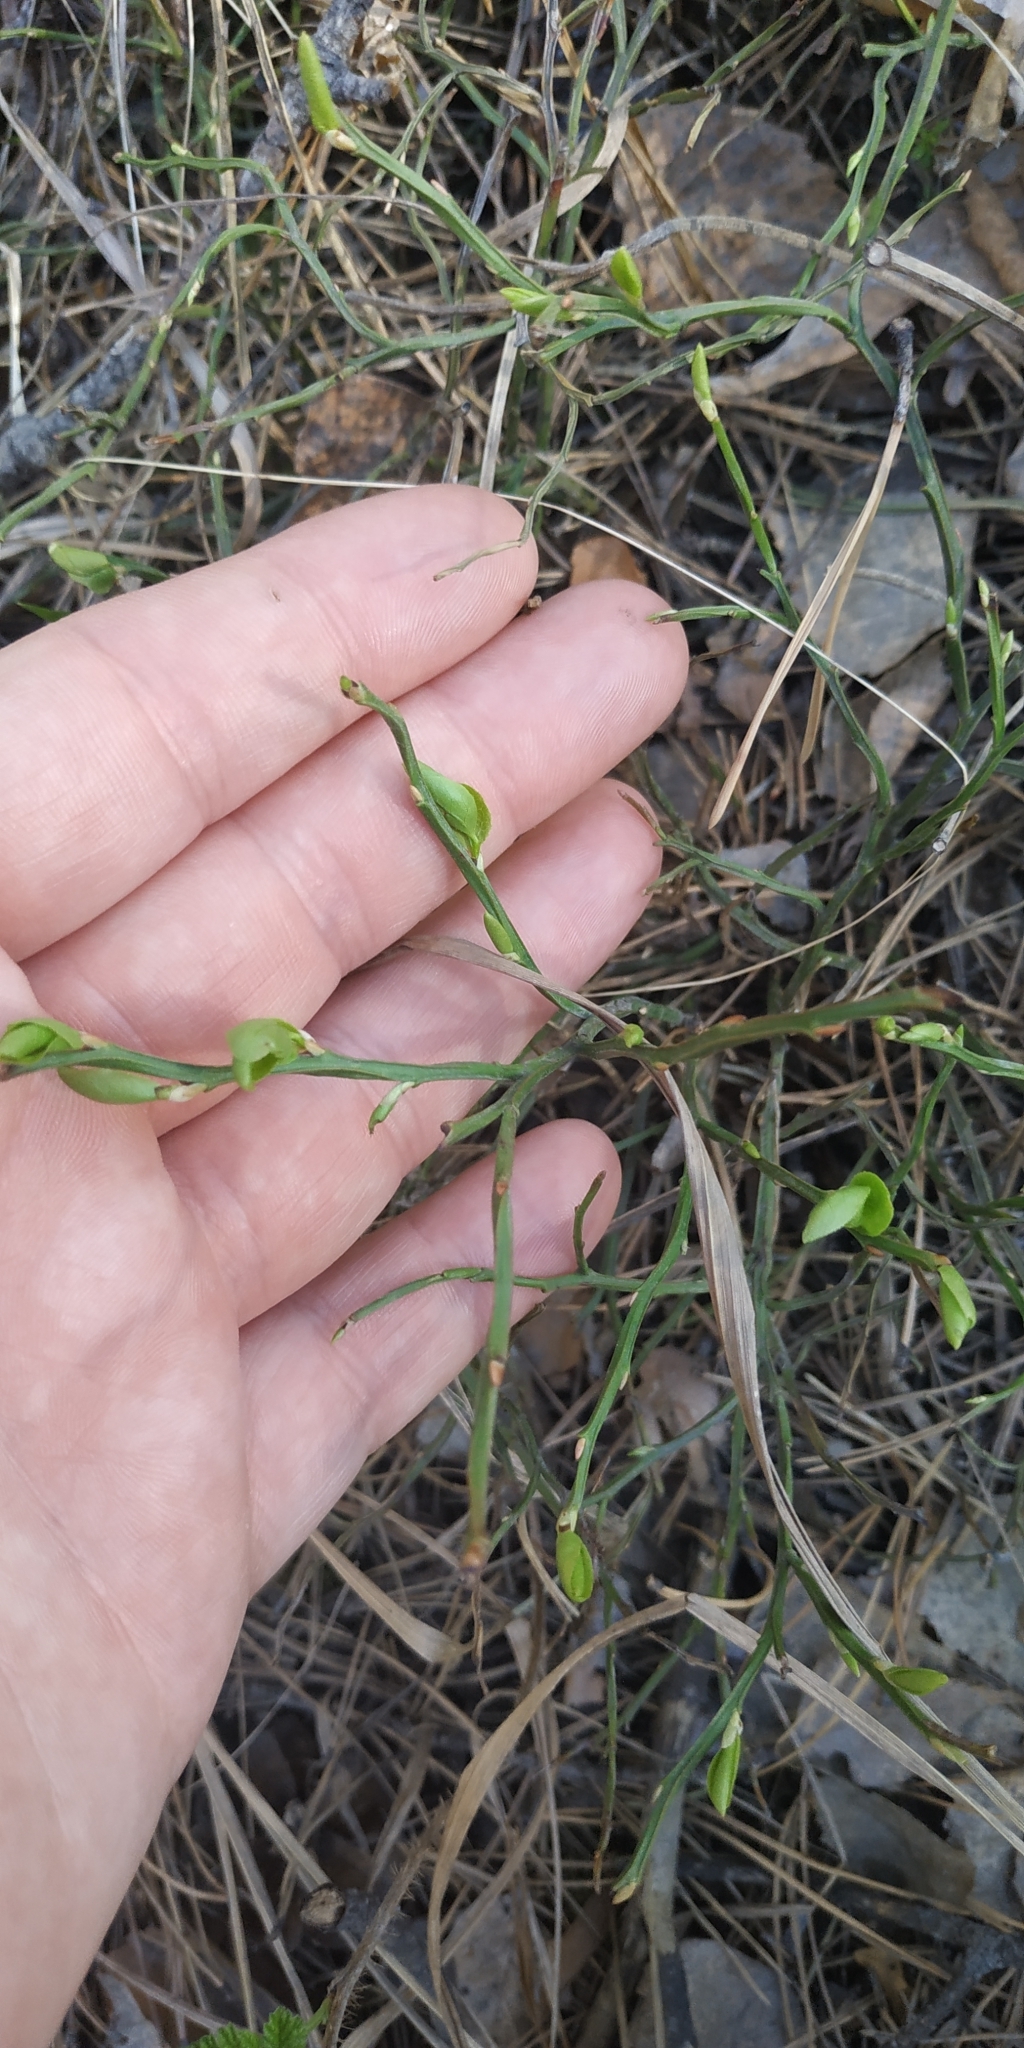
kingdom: Plantae
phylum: Tracheophyta
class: Magnoliopsida
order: Ericales
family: Ericaceae
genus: Vaccinium
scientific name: Vaccinium myrtillus
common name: Bilberry
